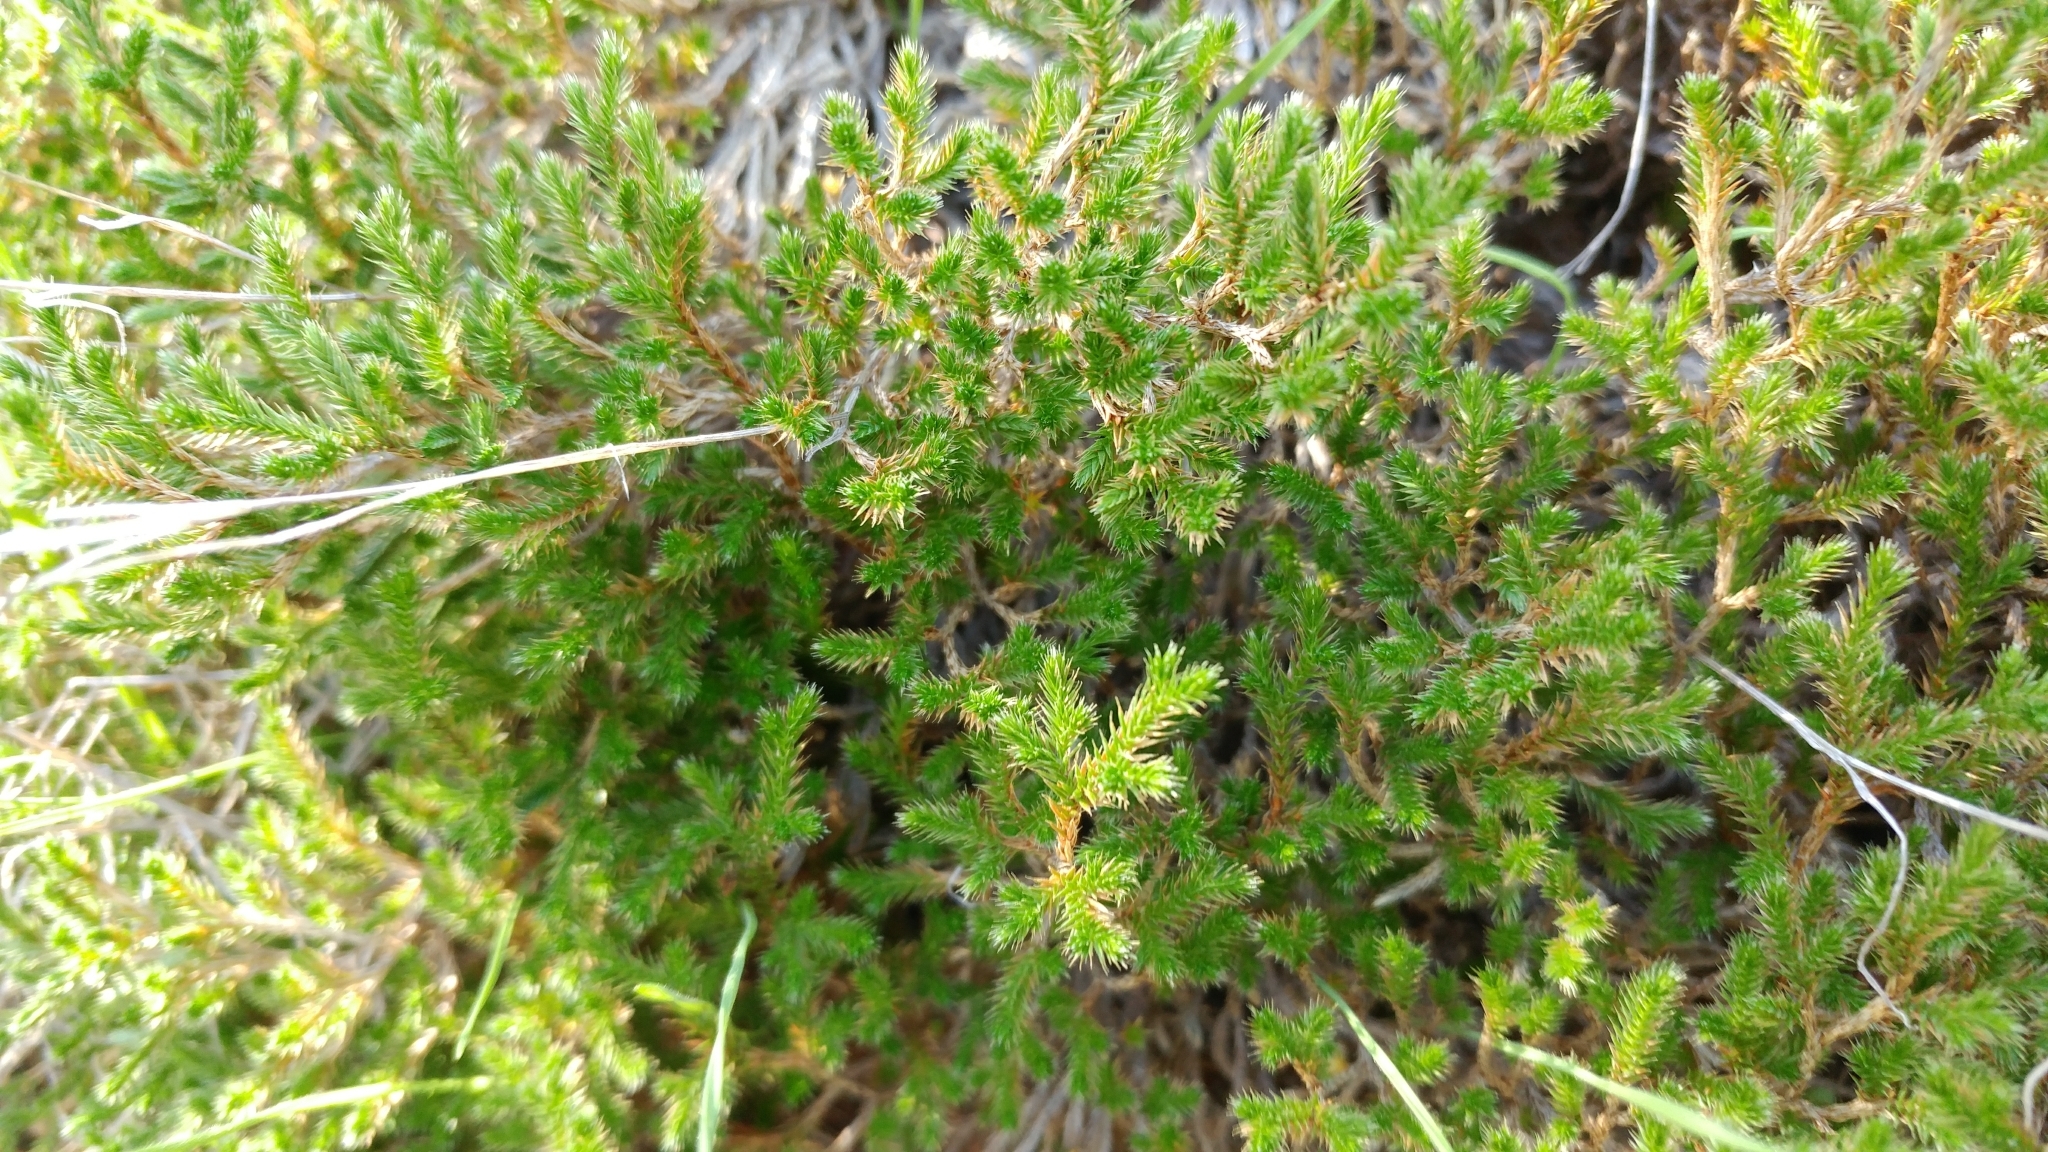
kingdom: Plantae
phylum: Tracheophyta
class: Lycopodiopsida
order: Selaginellales
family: Selaginellaceae
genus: Selaginella
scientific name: Selaginella bigelovii
